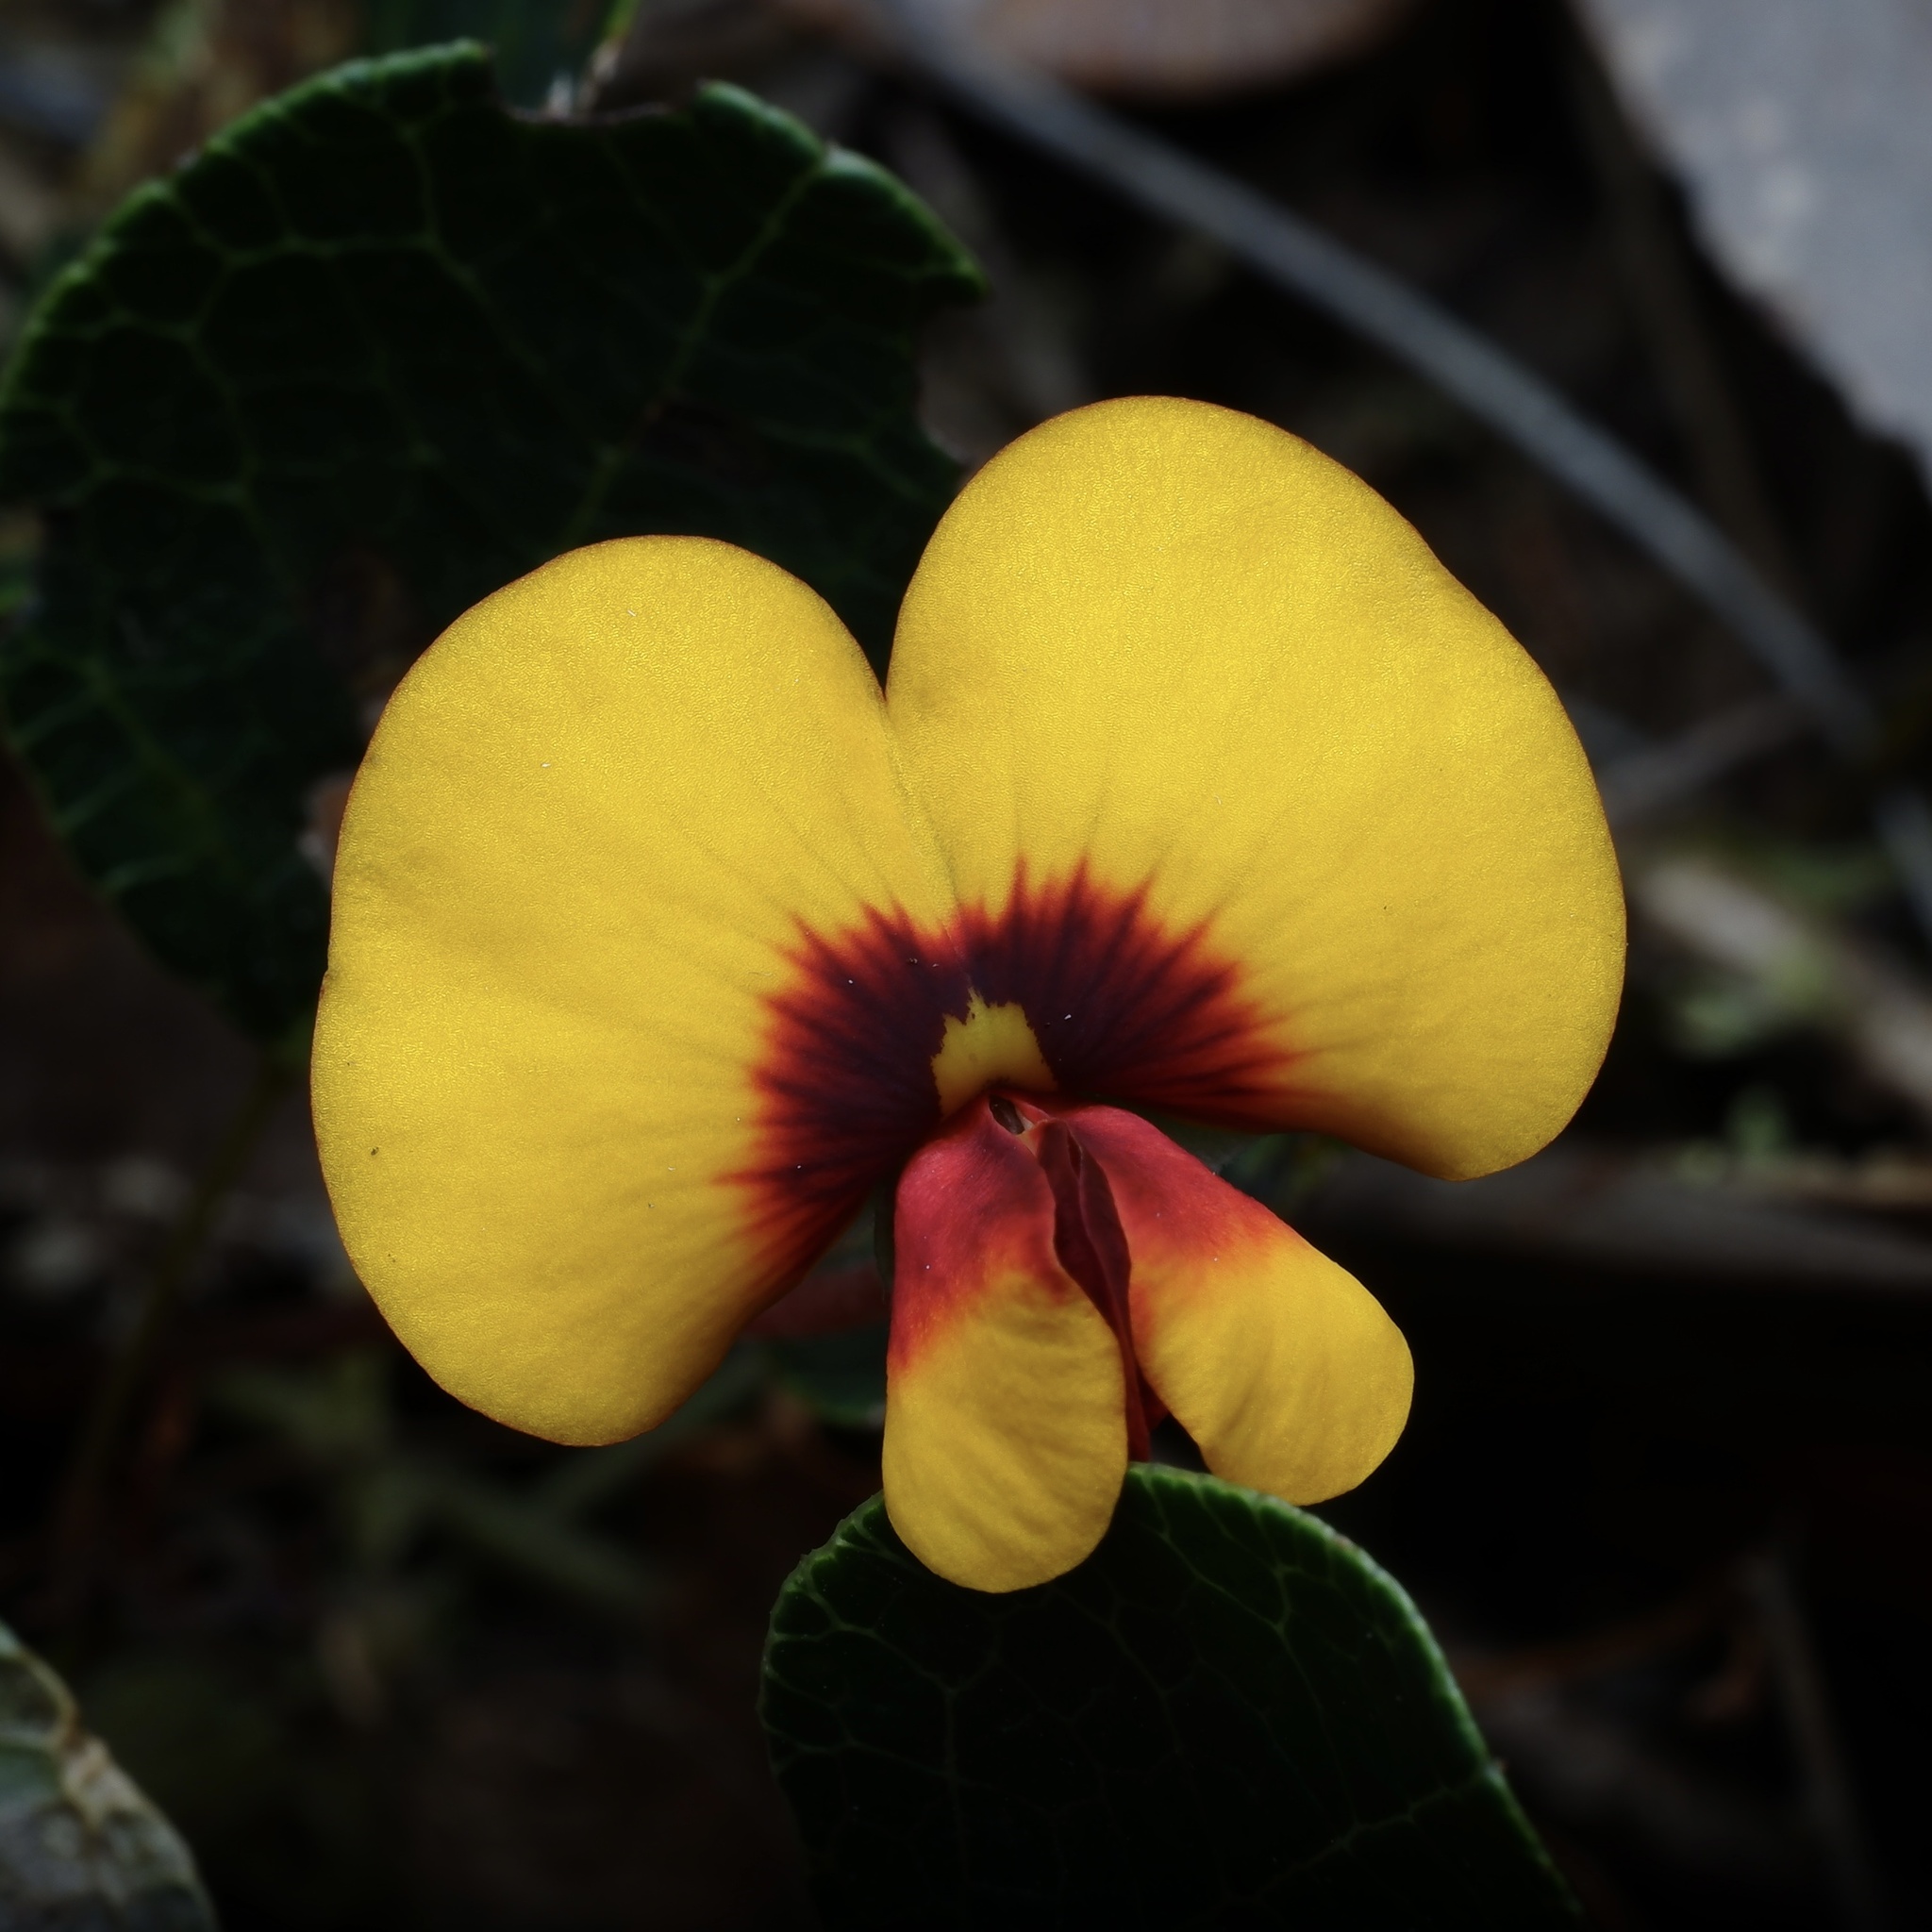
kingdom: Plantae
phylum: Tracheophyta
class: Magnoliopsida
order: Fabales
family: Fabaceae
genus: Platylobium
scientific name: Platylobium rotundum
